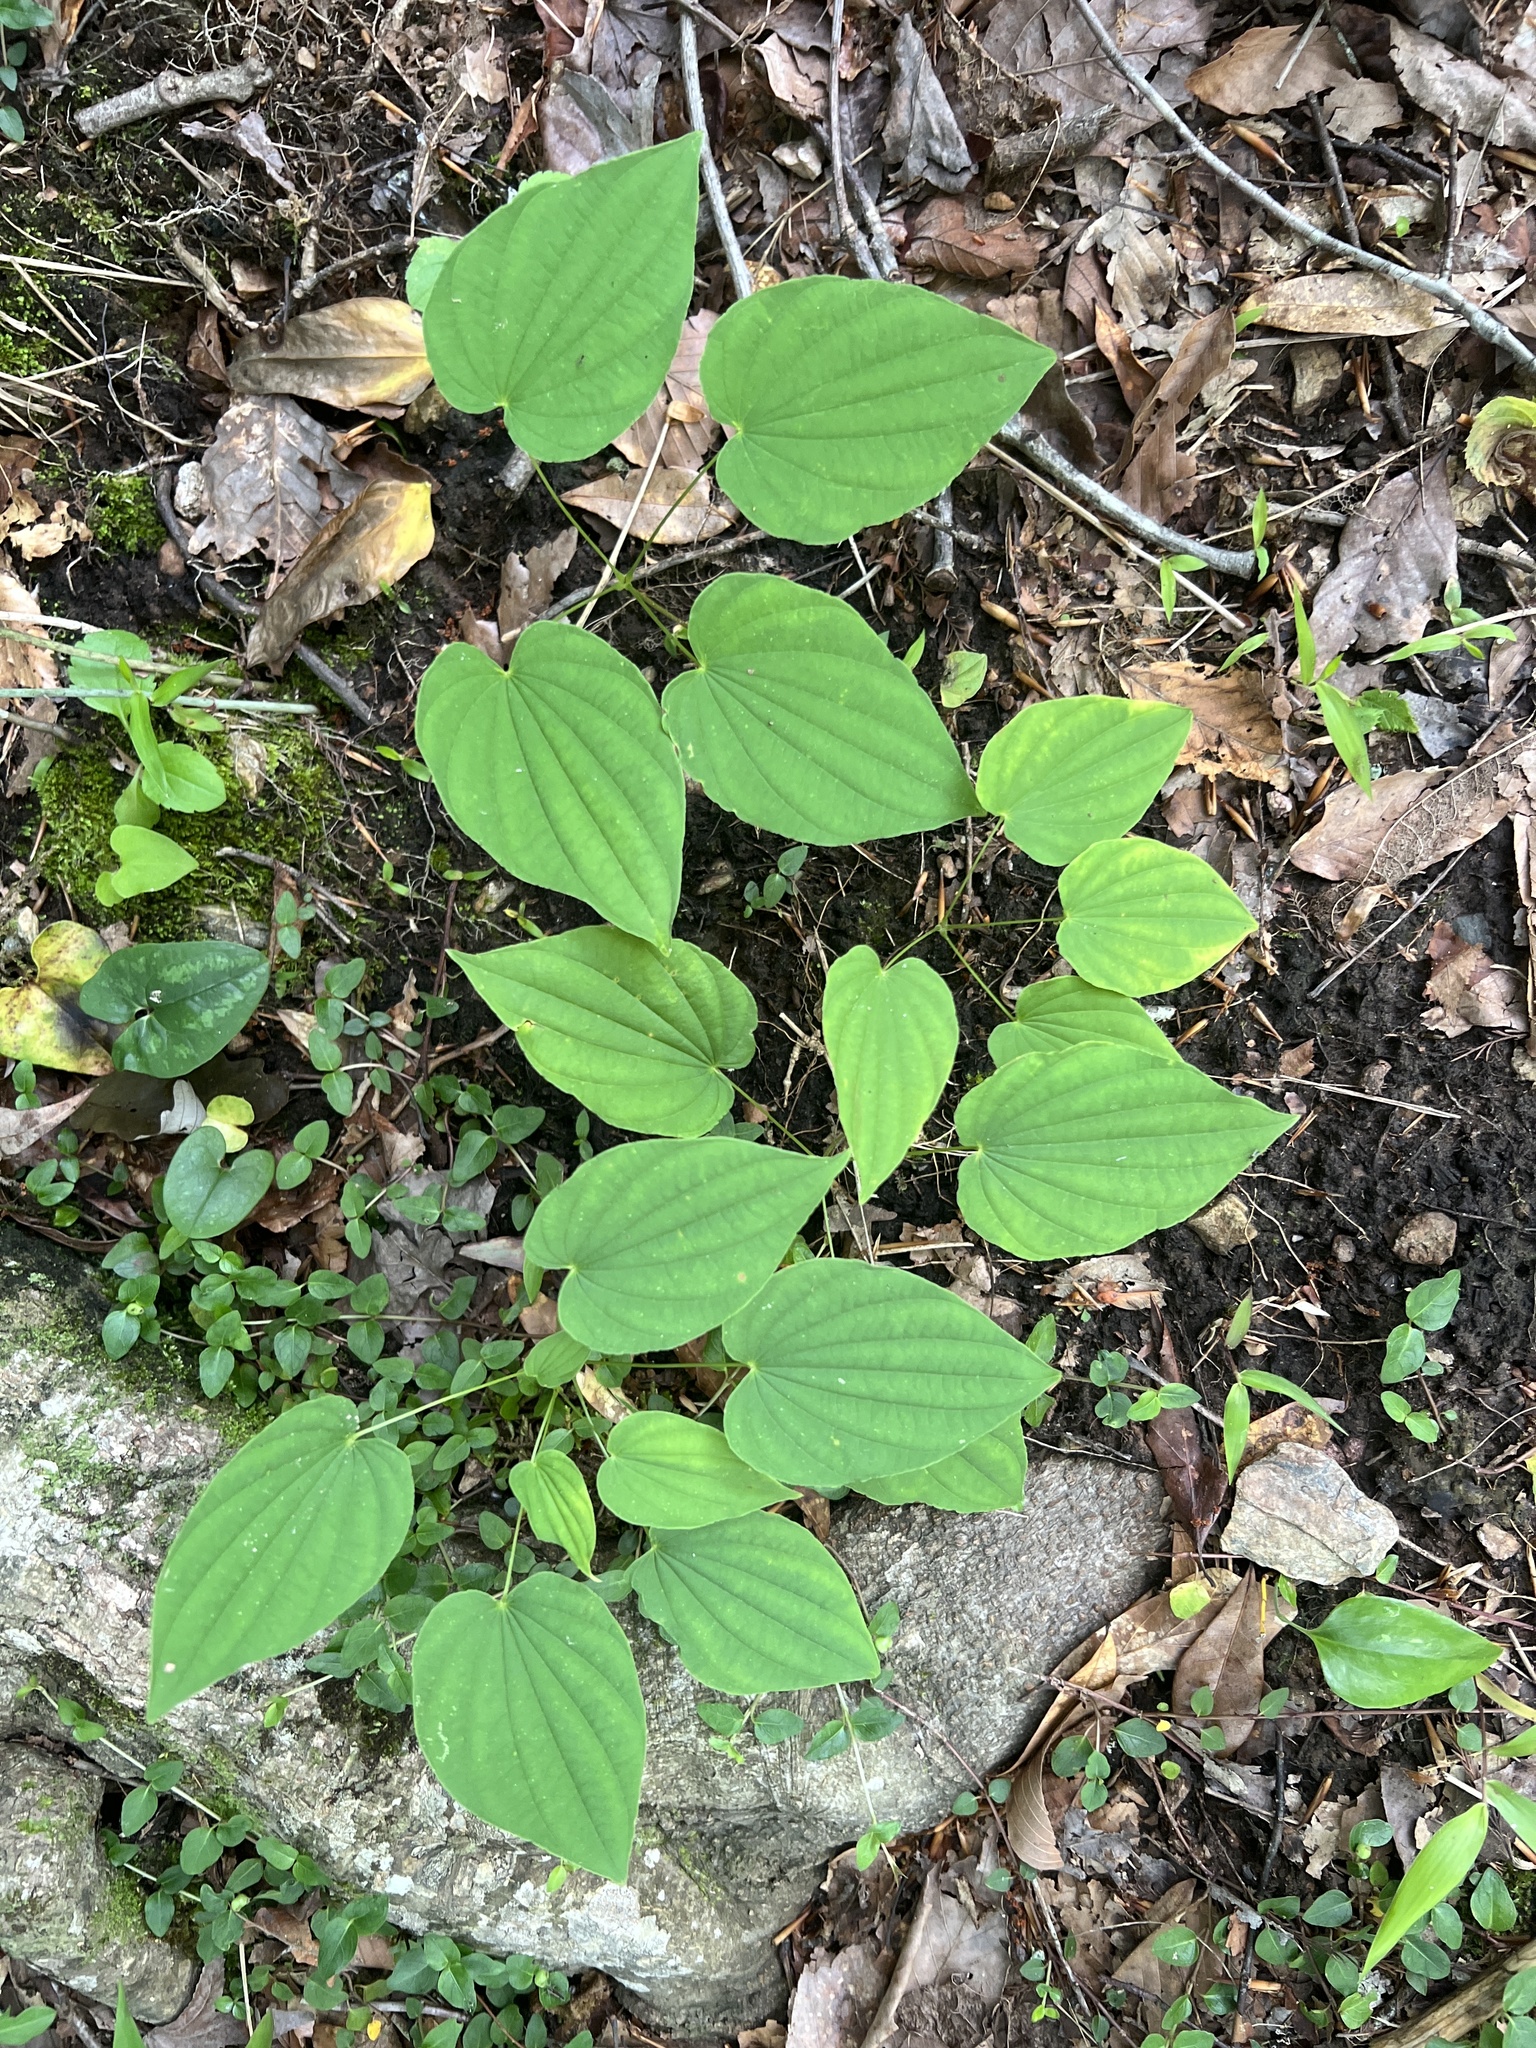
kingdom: Plantae
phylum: Tracheophyta
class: Liliopsida
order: Dioscoreales
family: Dioscoreaceae
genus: Dioscorea
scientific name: Dioscorea villosa
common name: Wild yam
